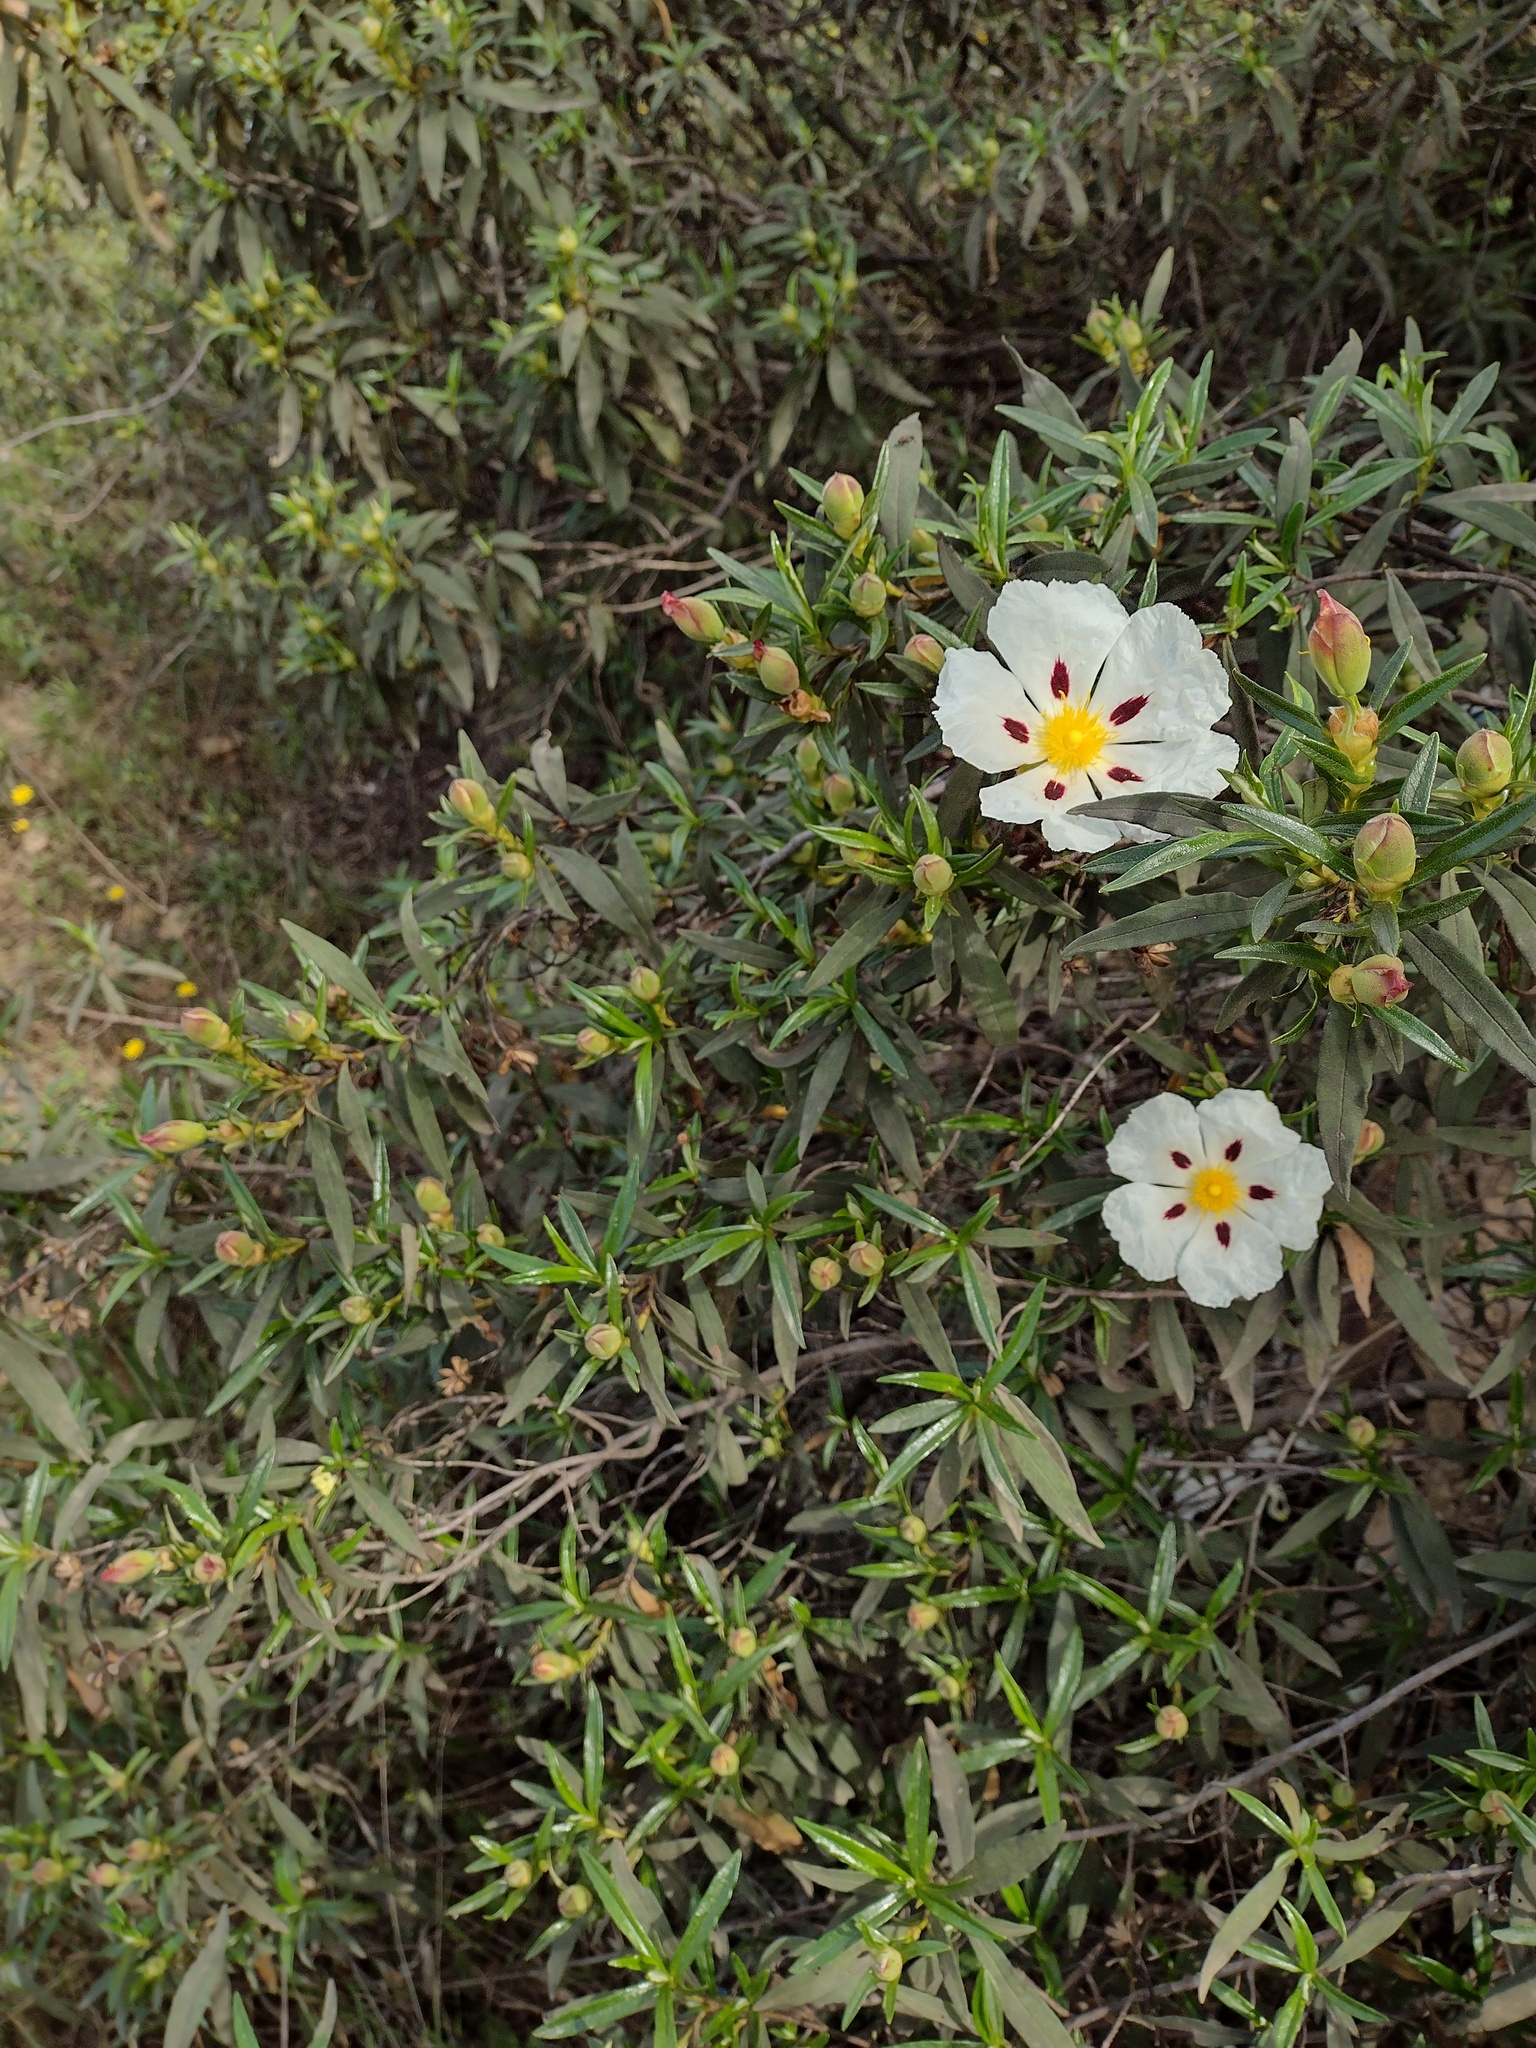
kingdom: Plantae
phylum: Tracheophyta
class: Magnoliopsida
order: Malvales
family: Cistaceae
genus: Cistus
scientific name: Cistus ladanifer
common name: Common gum cistus
